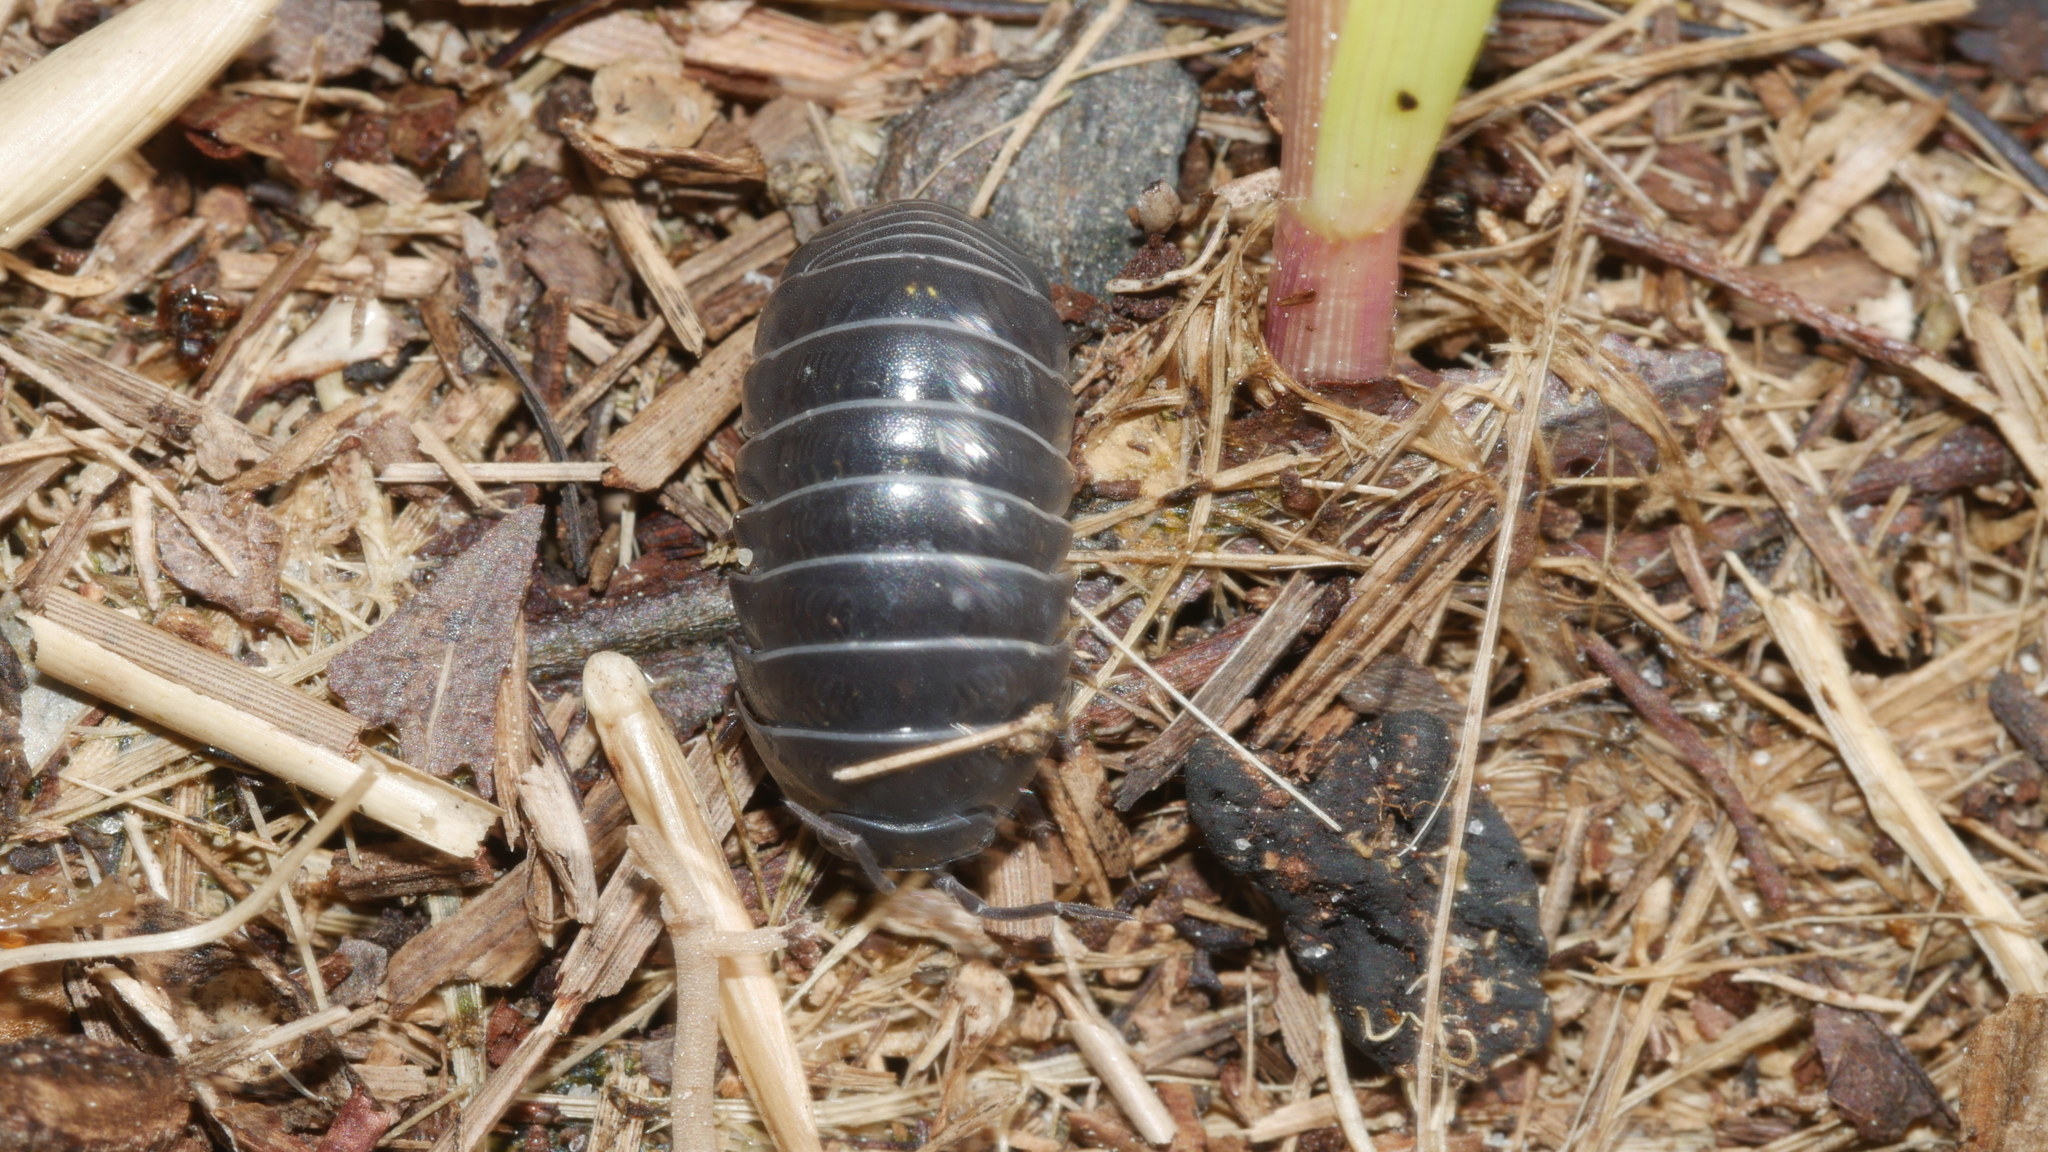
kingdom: Animalia
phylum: Arthropoda
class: Malacostraca
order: Isopoda
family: Armadillidiidae
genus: Armadillidium
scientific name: Armadillidium vulgare
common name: Common pill woodlouse
